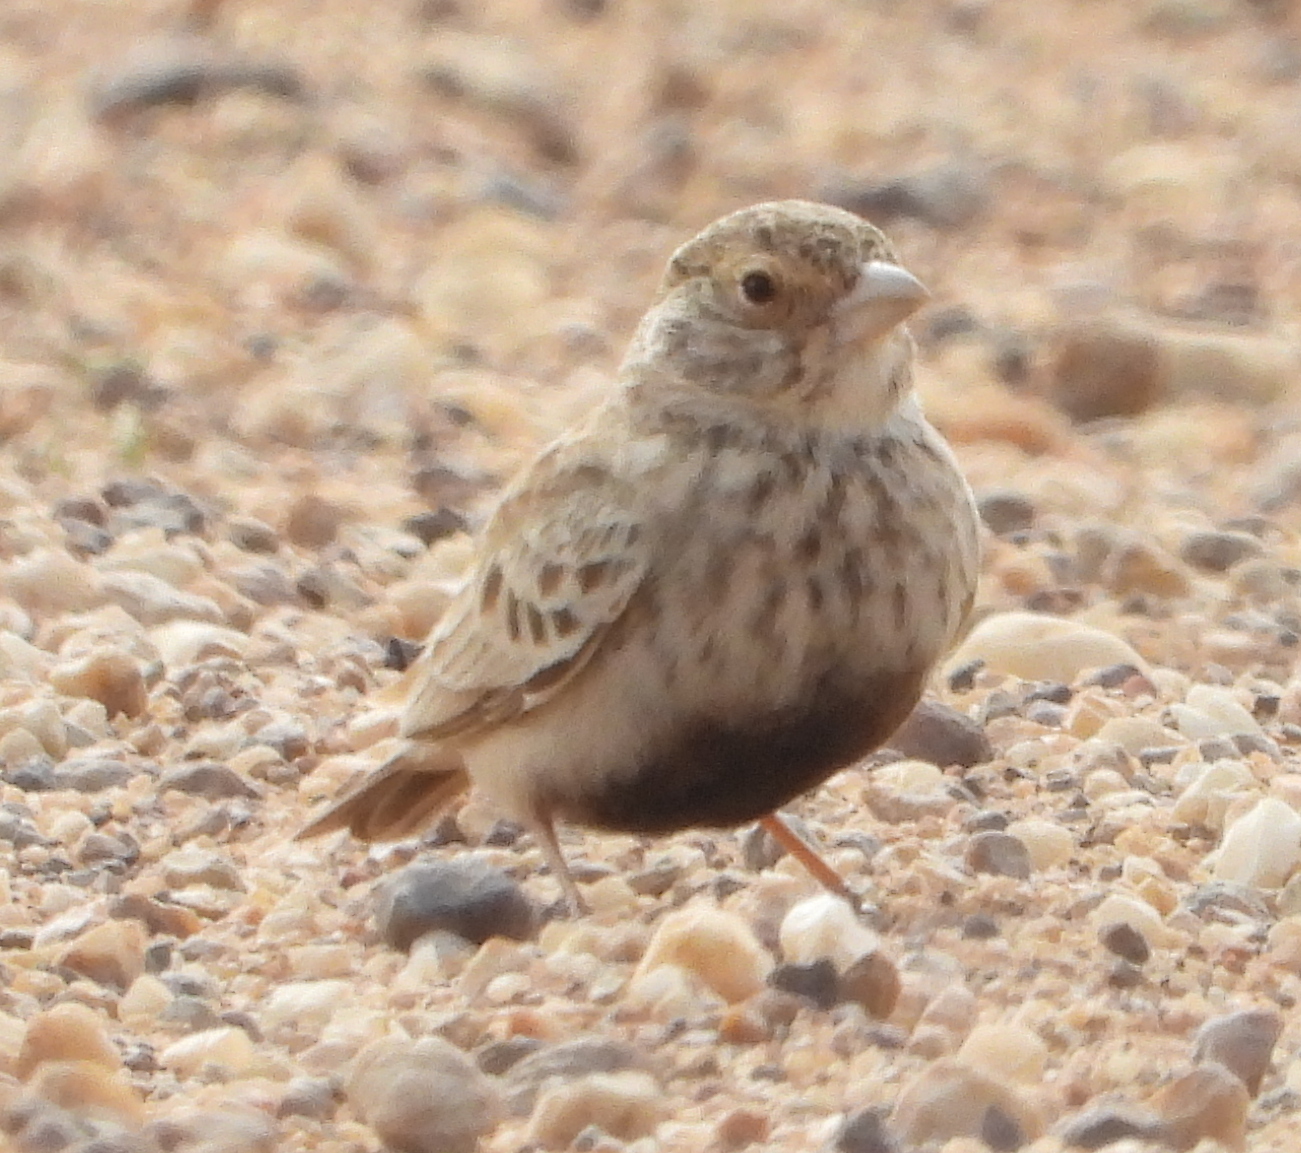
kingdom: Animalia
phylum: Chordata
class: Aves
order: Passeriformes
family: Alaudidae
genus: Eremopterix
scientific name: Eremopterix verticalis
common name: Grey-backed sparrow-lark
